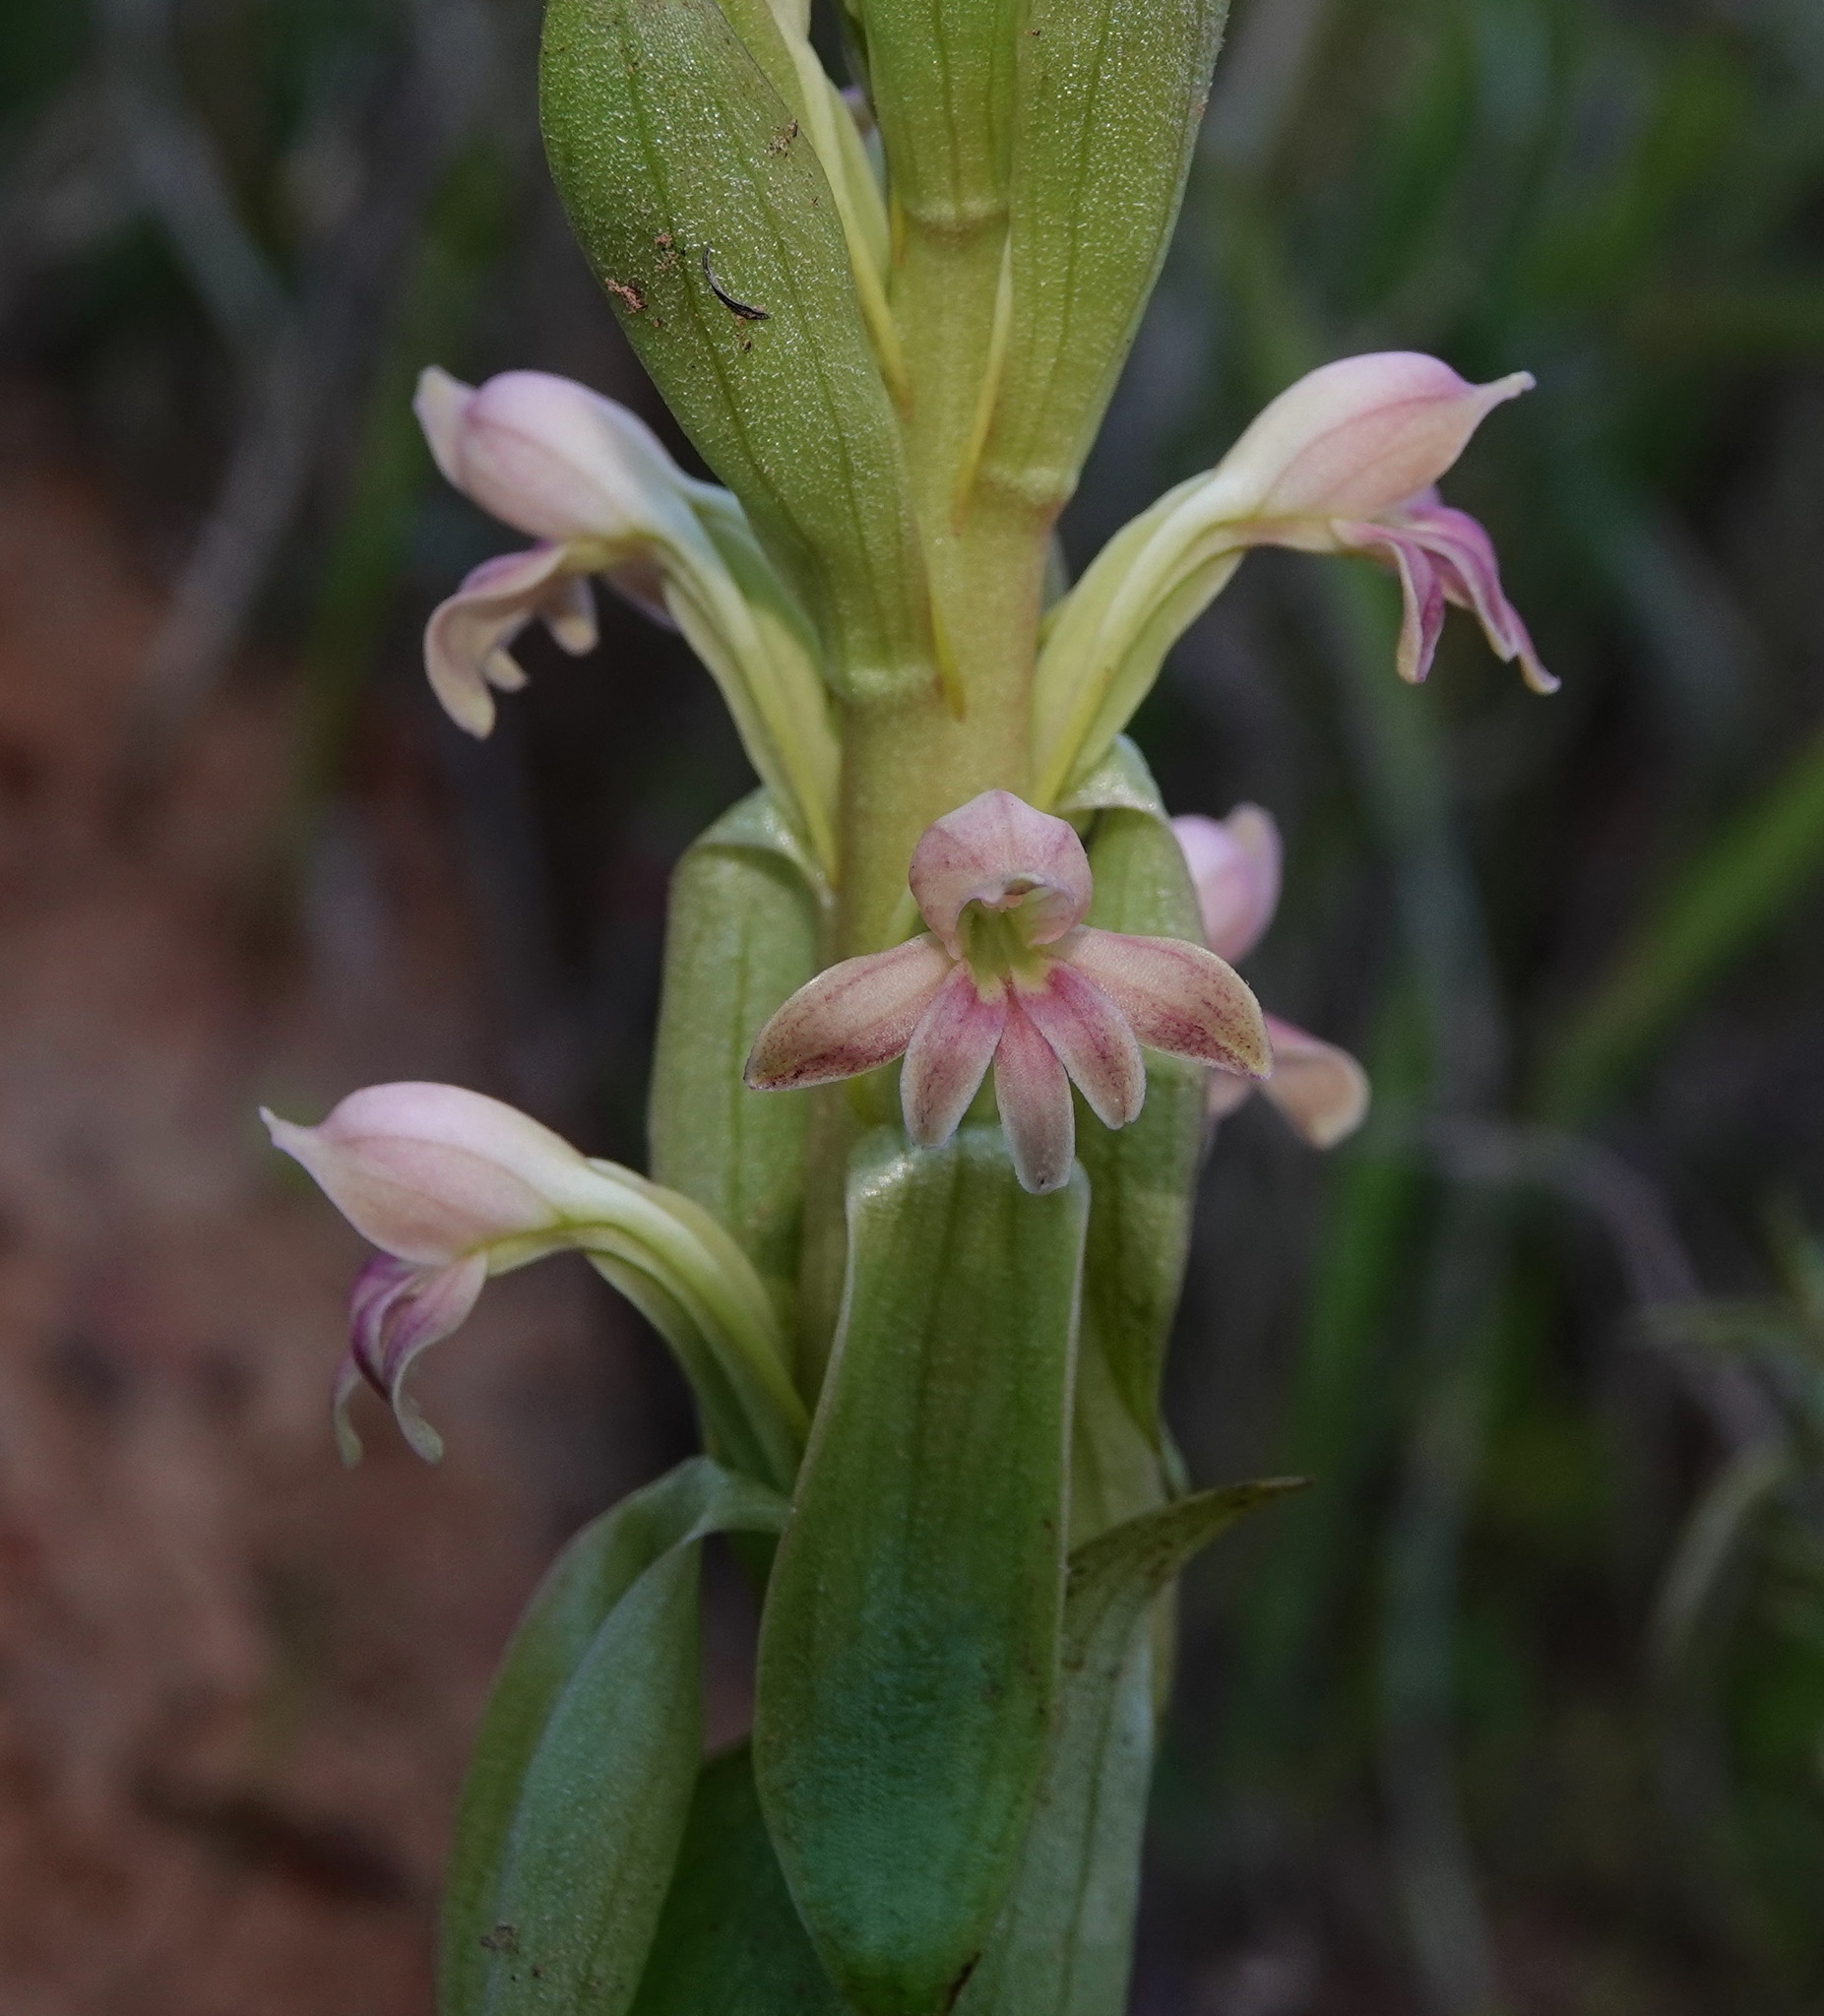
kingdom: Plantae
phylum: Tracheophyta
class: Liliopsida
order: Asparagales
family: Orchidaceae
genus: Satyrium
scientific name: Satyrium
